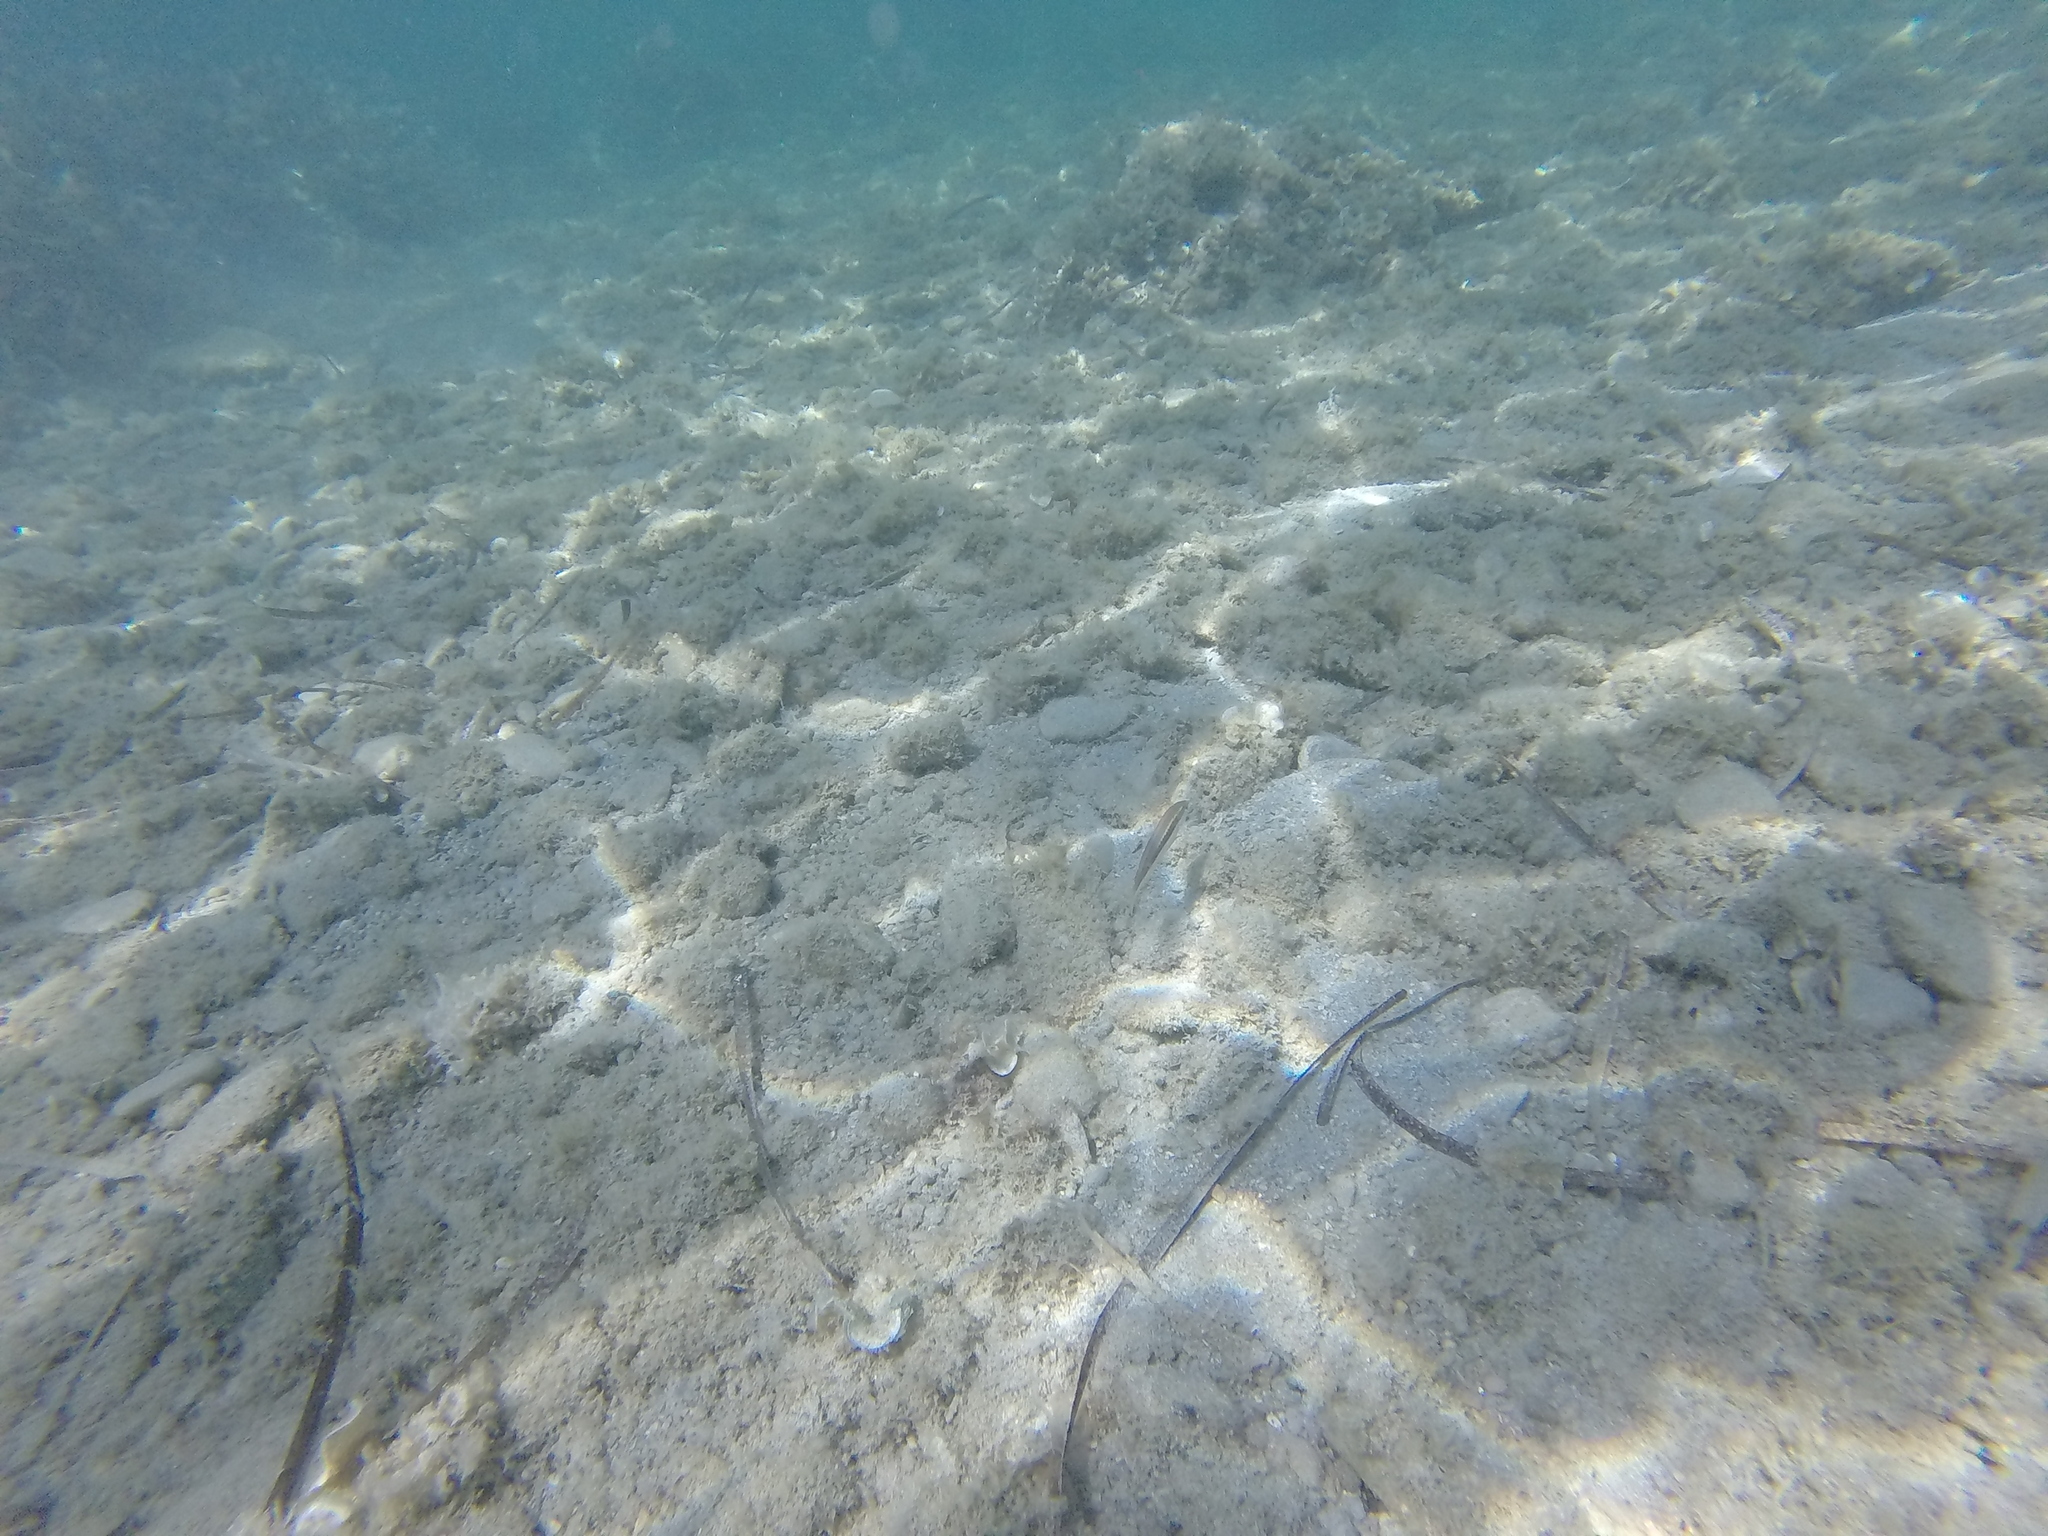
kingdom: Animalia
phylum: Chordata
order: Perciformes
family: Labridae
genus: Coris
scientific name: Coris julis
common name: Rainbow wrasse
